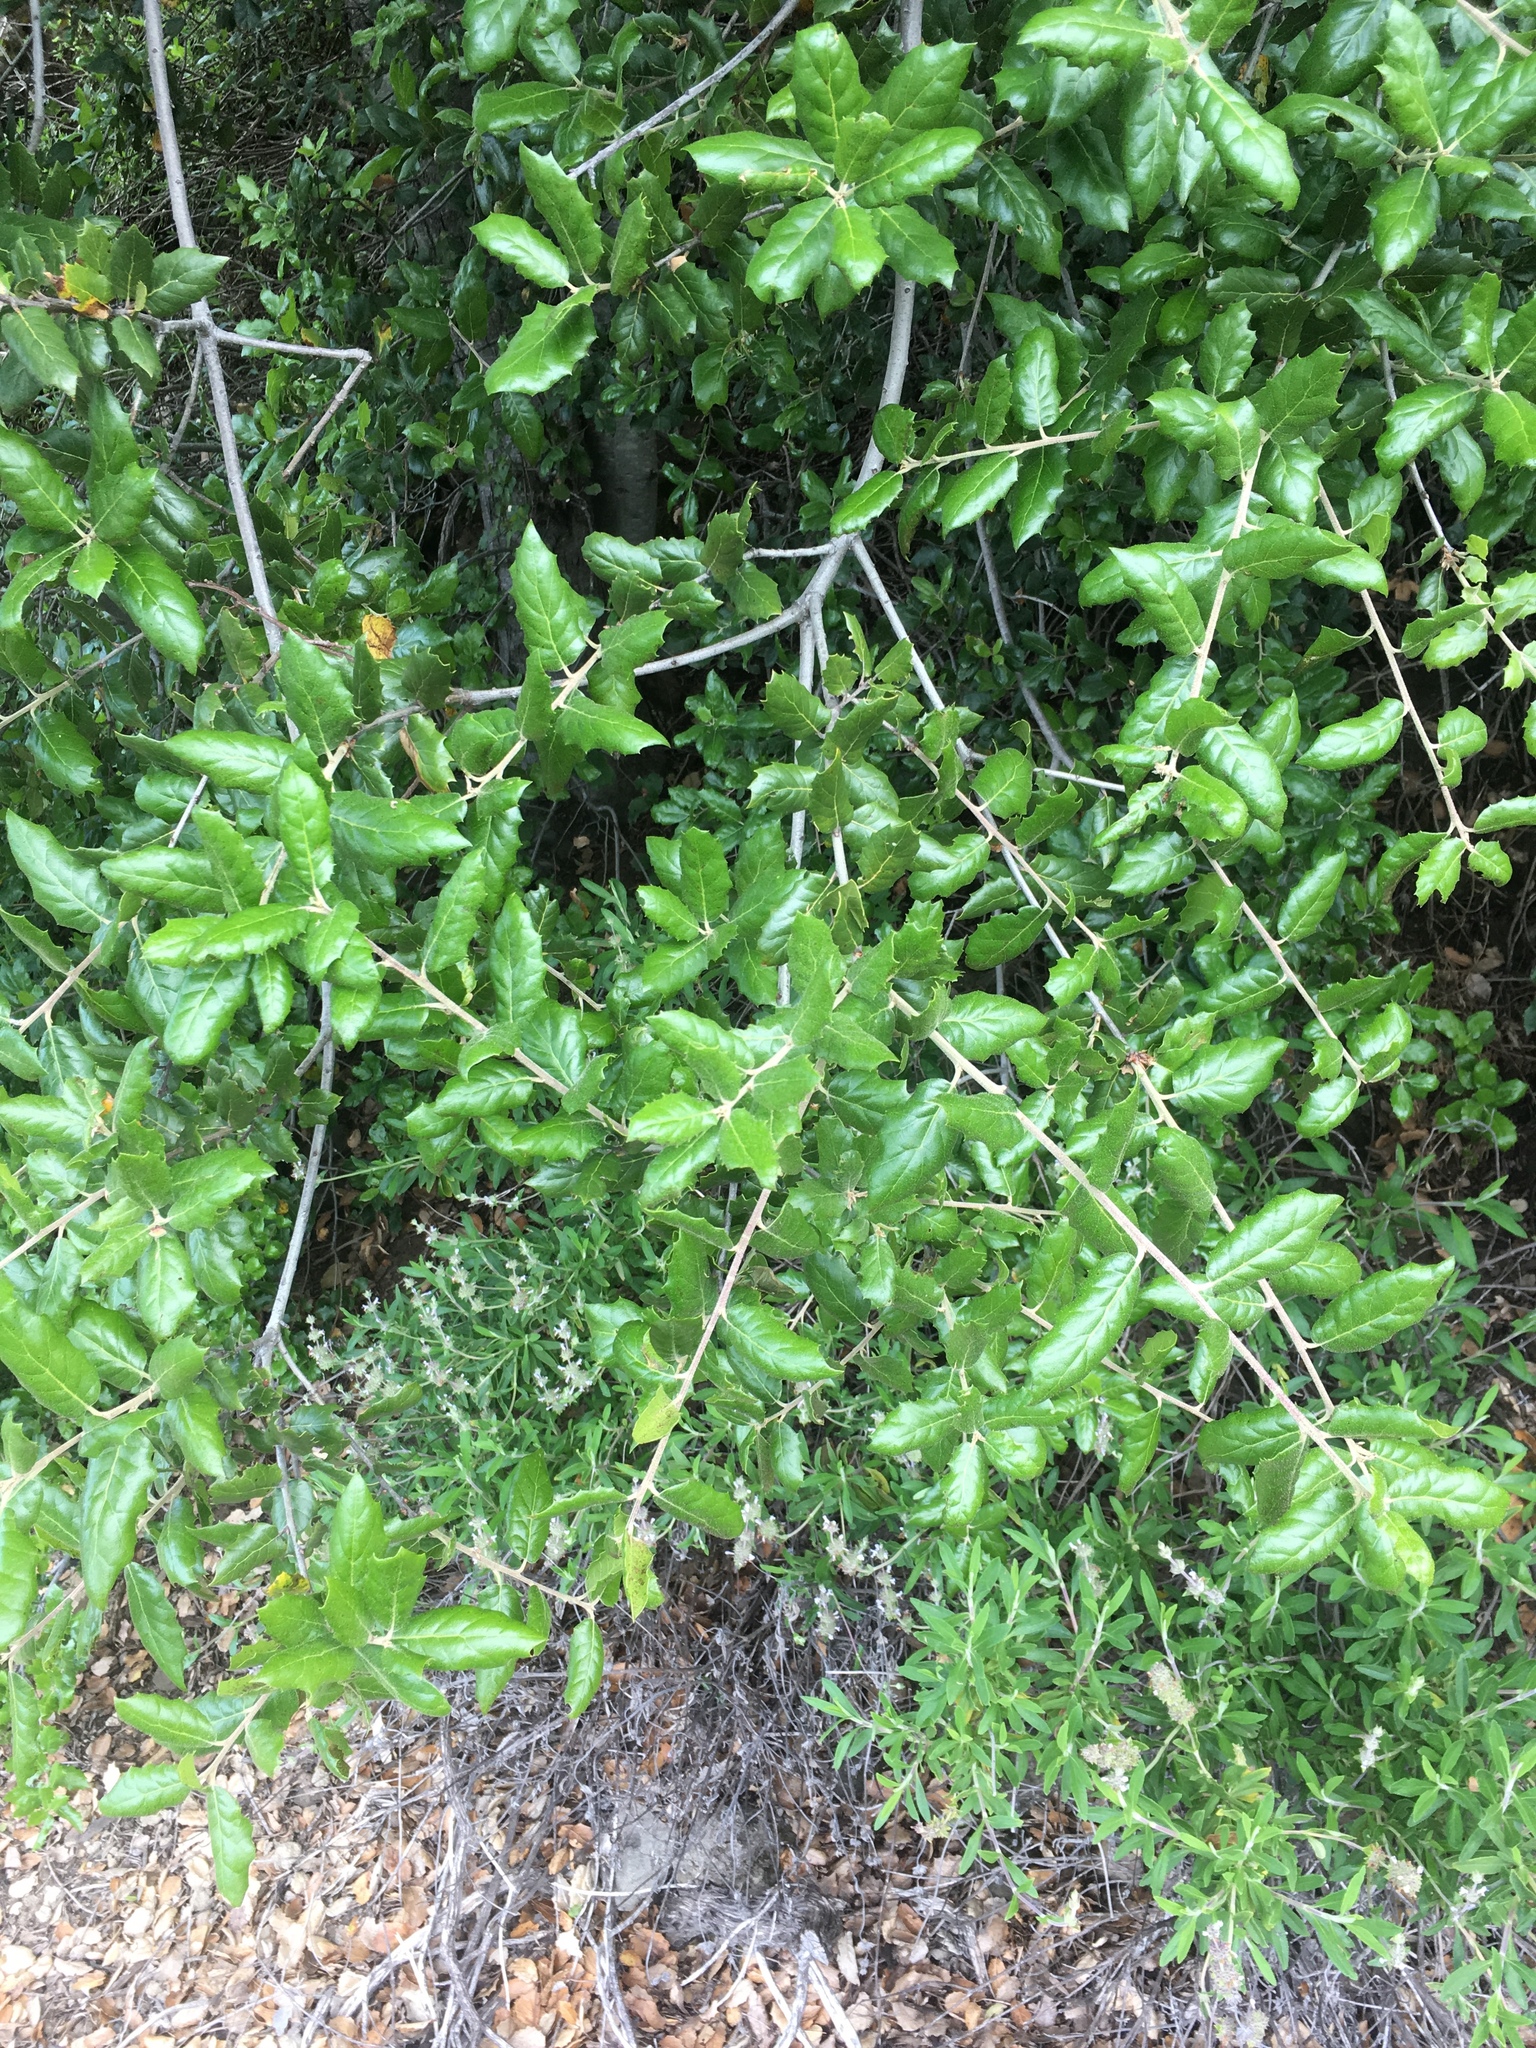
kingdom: Plantae
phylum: Tracheophyta
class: Magnoliopsida
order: Fagales
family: Fagaceae
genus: Quercus
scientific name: Quercus agrifolia
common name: California live oak
